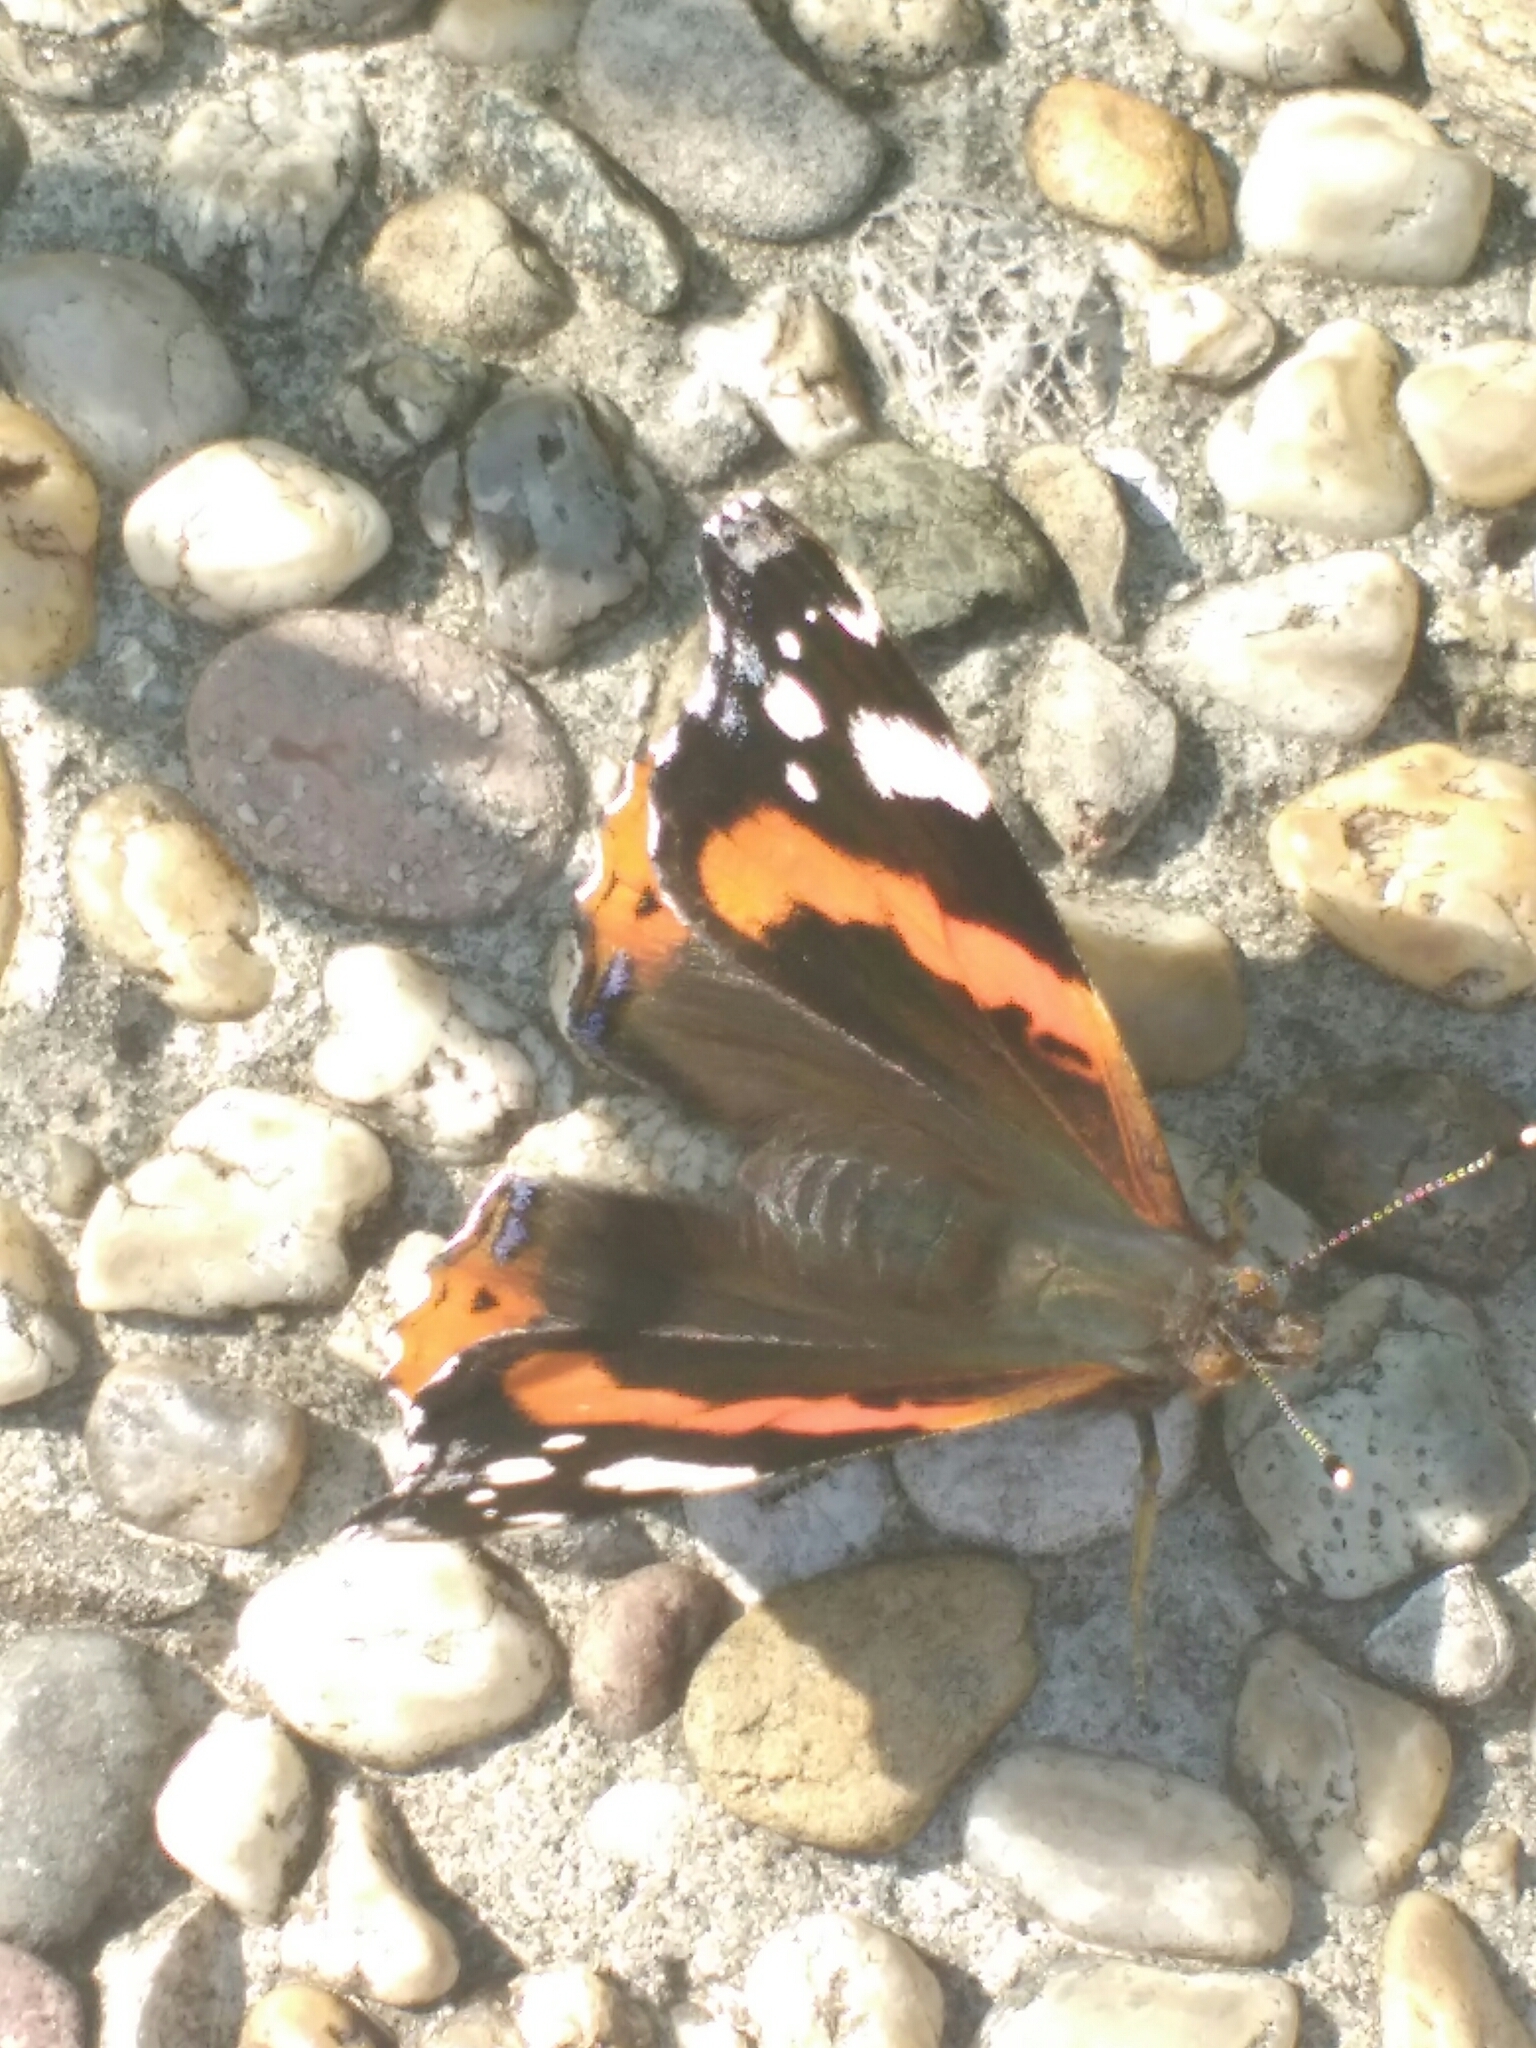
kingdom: Animalia
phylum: Arthropoda
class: Insecta
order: Lepidoptera
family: Nymphalidae
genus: Vanessa
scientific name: Vanessa atalanta
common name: Red admiral
